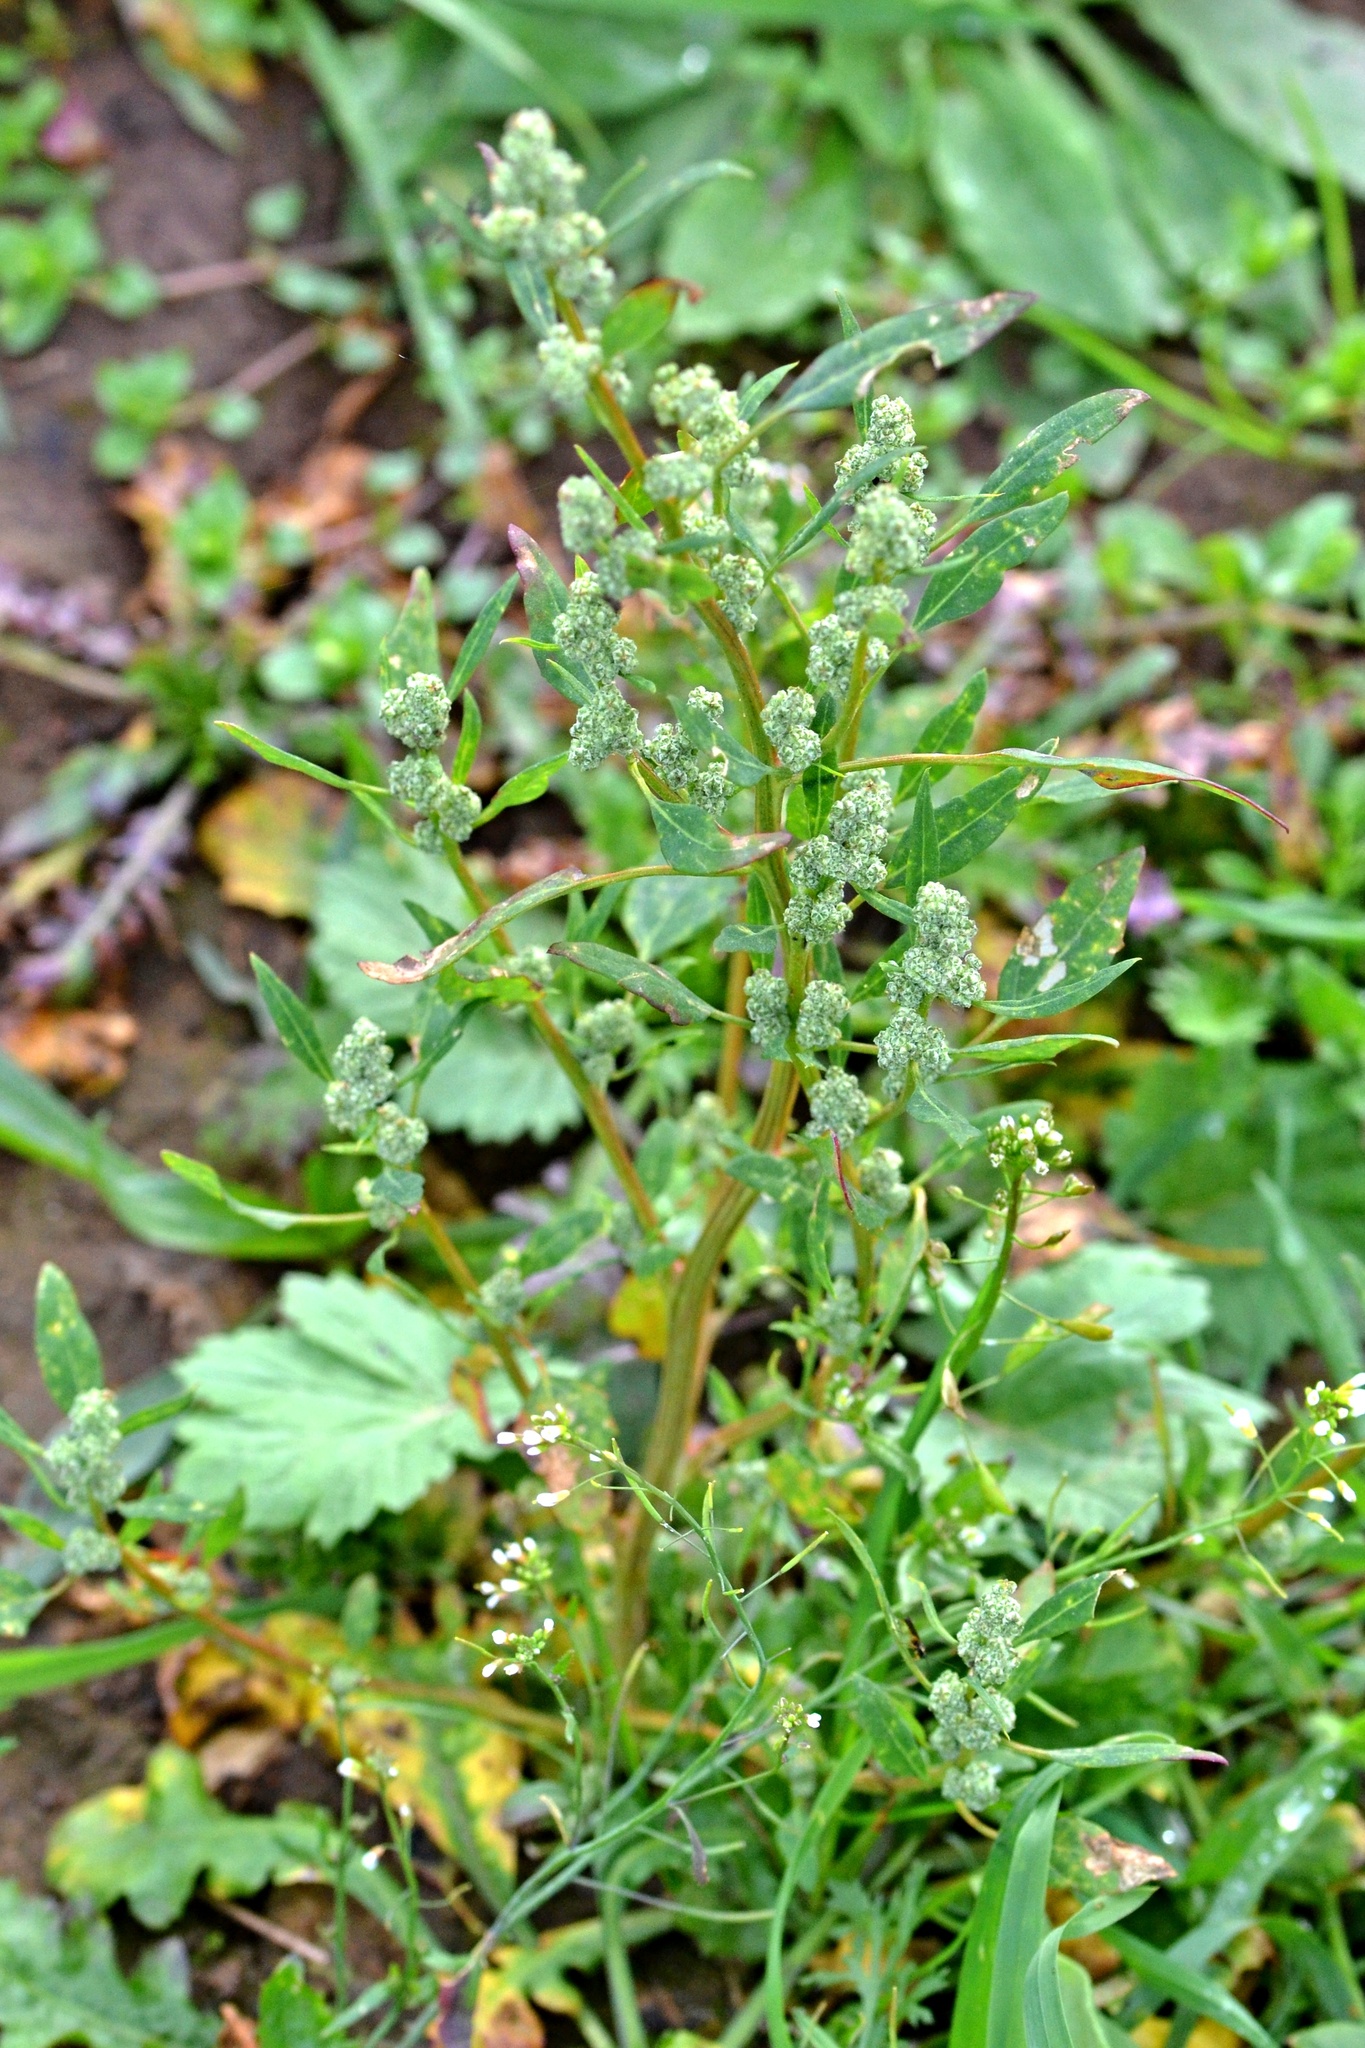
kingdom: Plantae
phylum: Tracheophyta
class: Magnoliopsida
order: Caryophyllales
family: Polygonaceae
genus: Persicaria
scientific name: Persicaria lapathifolia
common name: Curlytop knotweed
